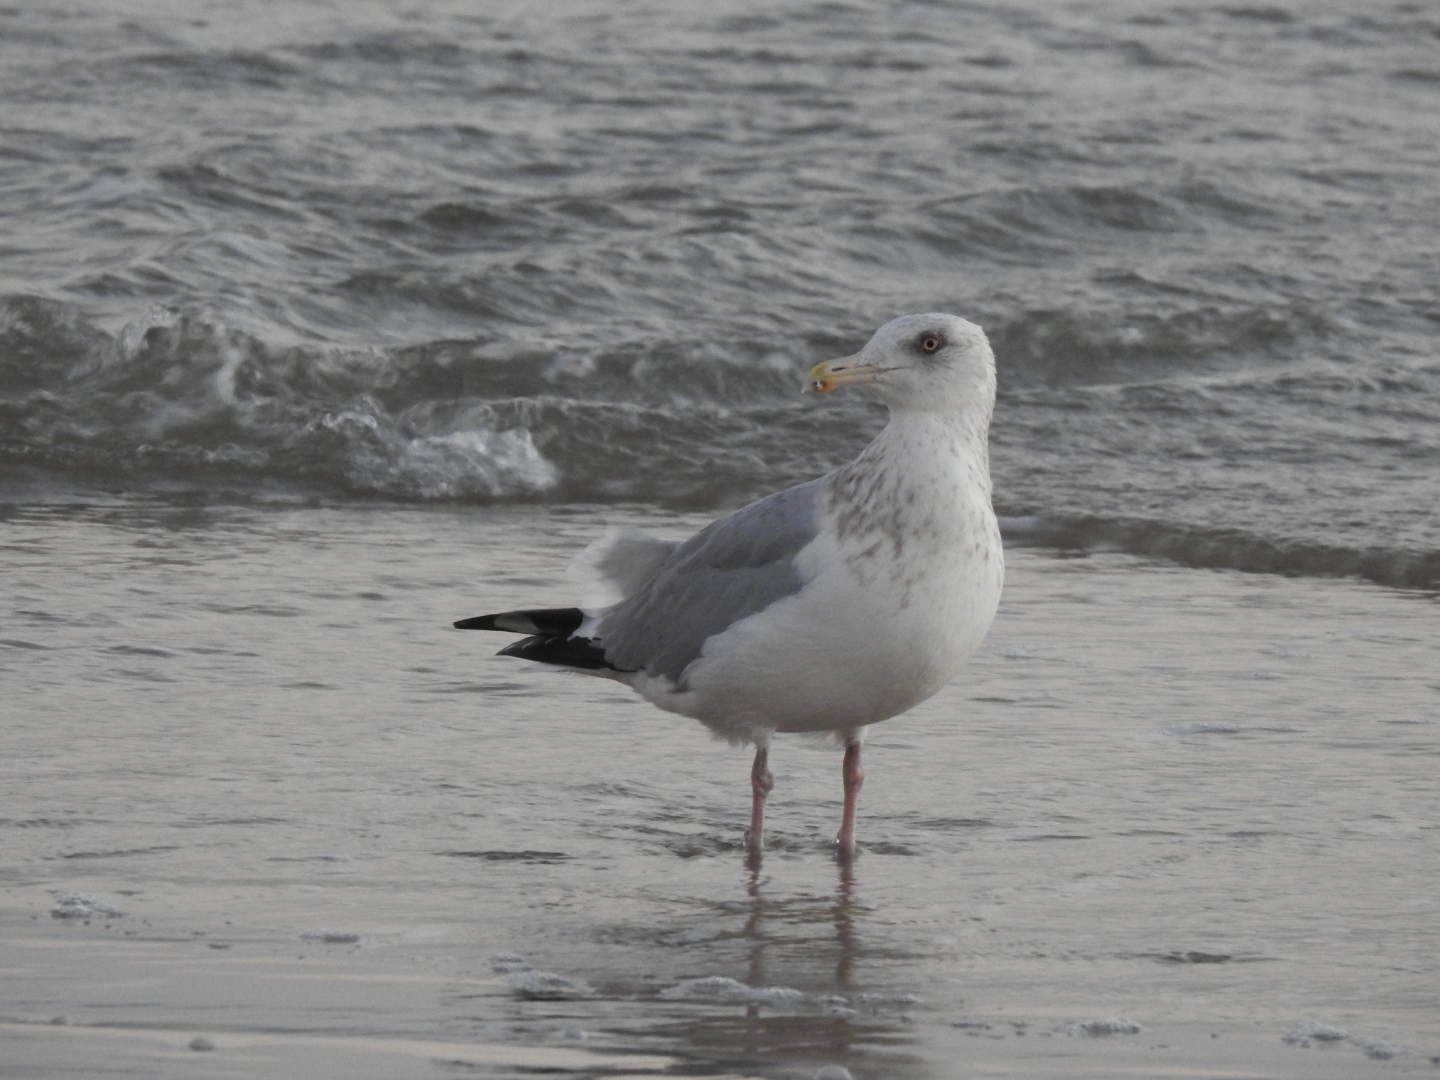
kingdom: Animalia
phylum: Chordata
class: Aves
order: Charadriiformes
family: Laridae
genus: Larus
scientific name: Larus argentatus
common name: Herring gull
